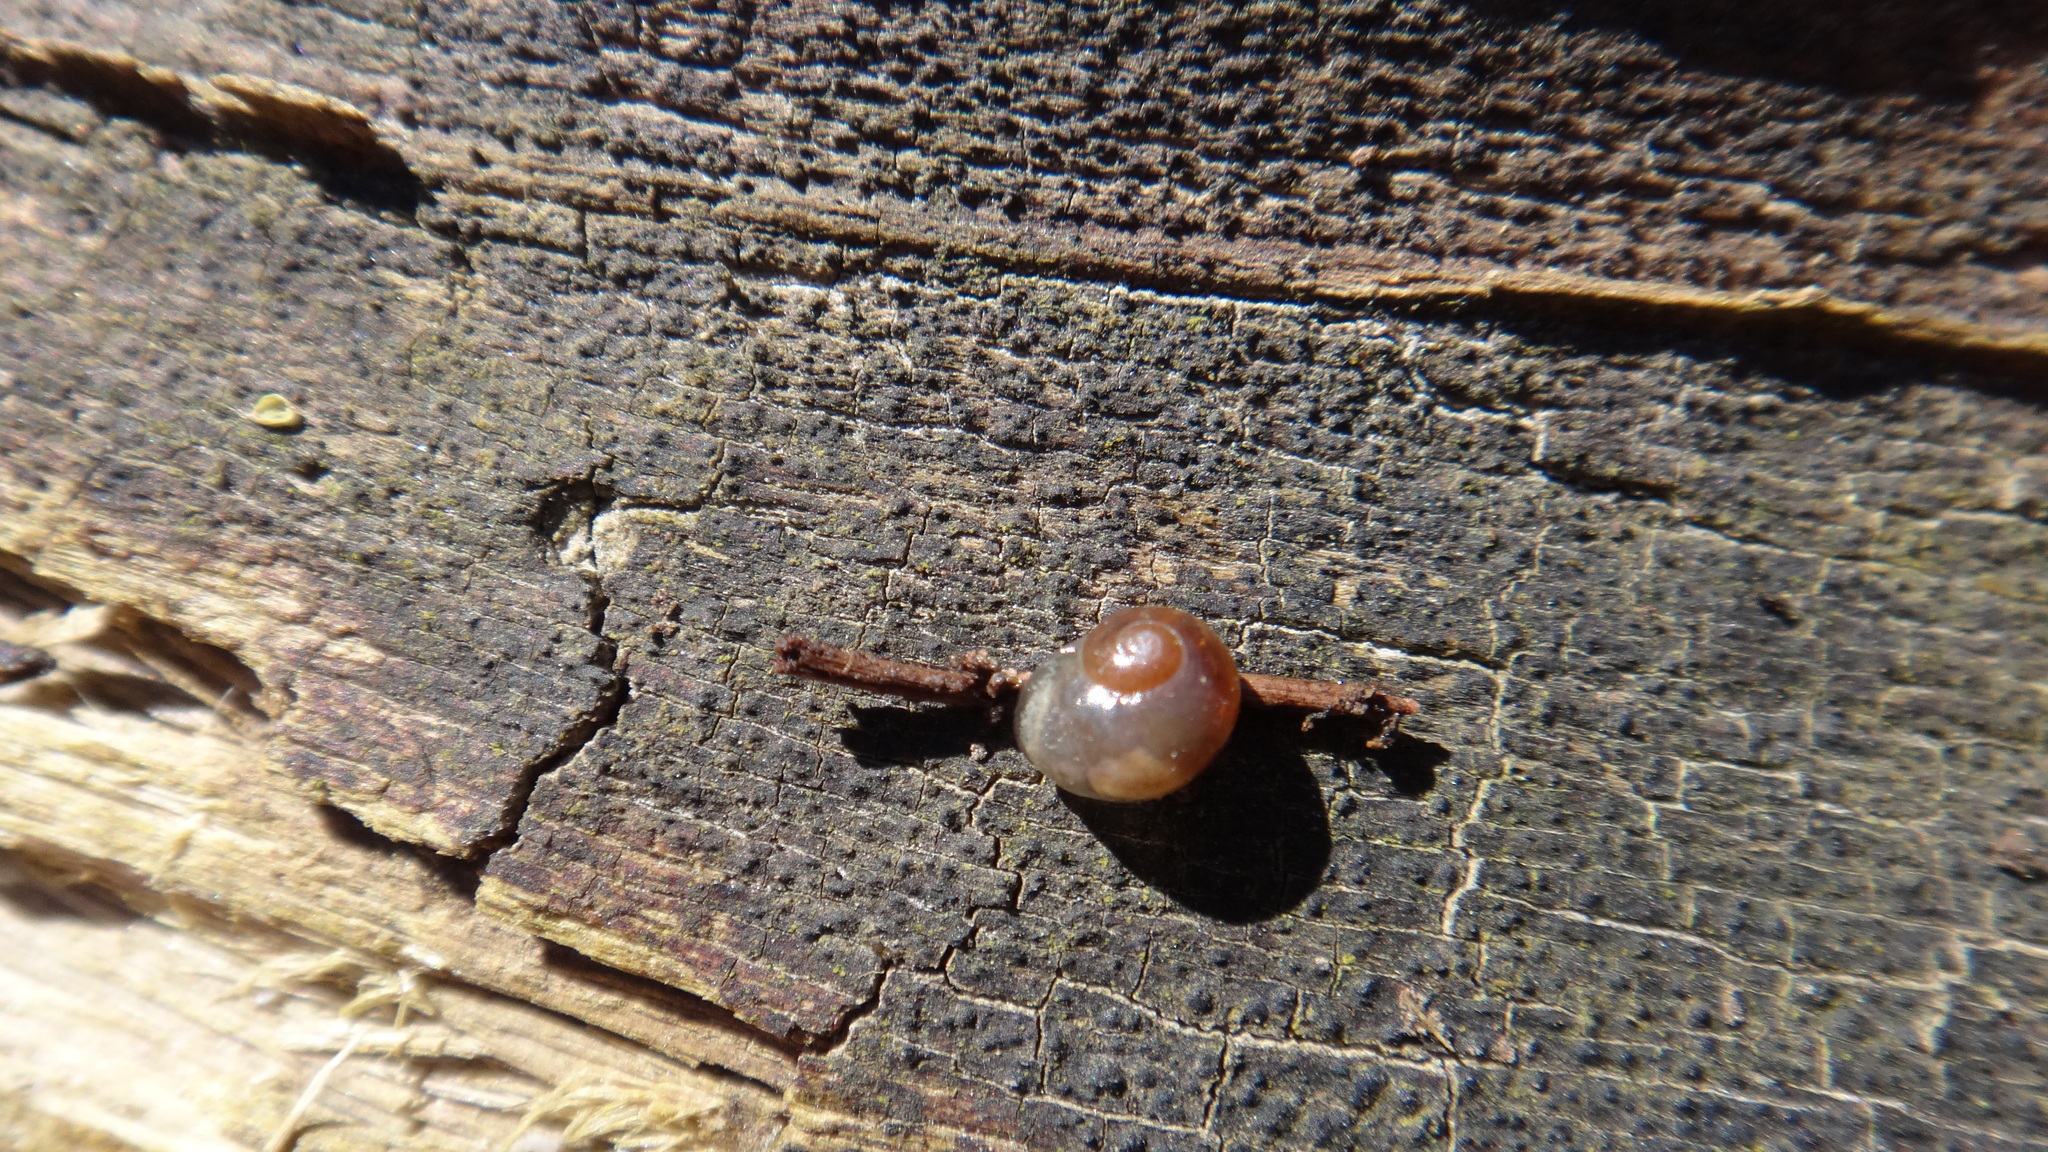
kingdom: Animalia
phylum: Mollusca
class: Gastropoda
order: Stylommatophora
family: Vitrinidae
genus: Vitrina
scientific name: Vitrina pellucida
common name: Pellucid glass snail
